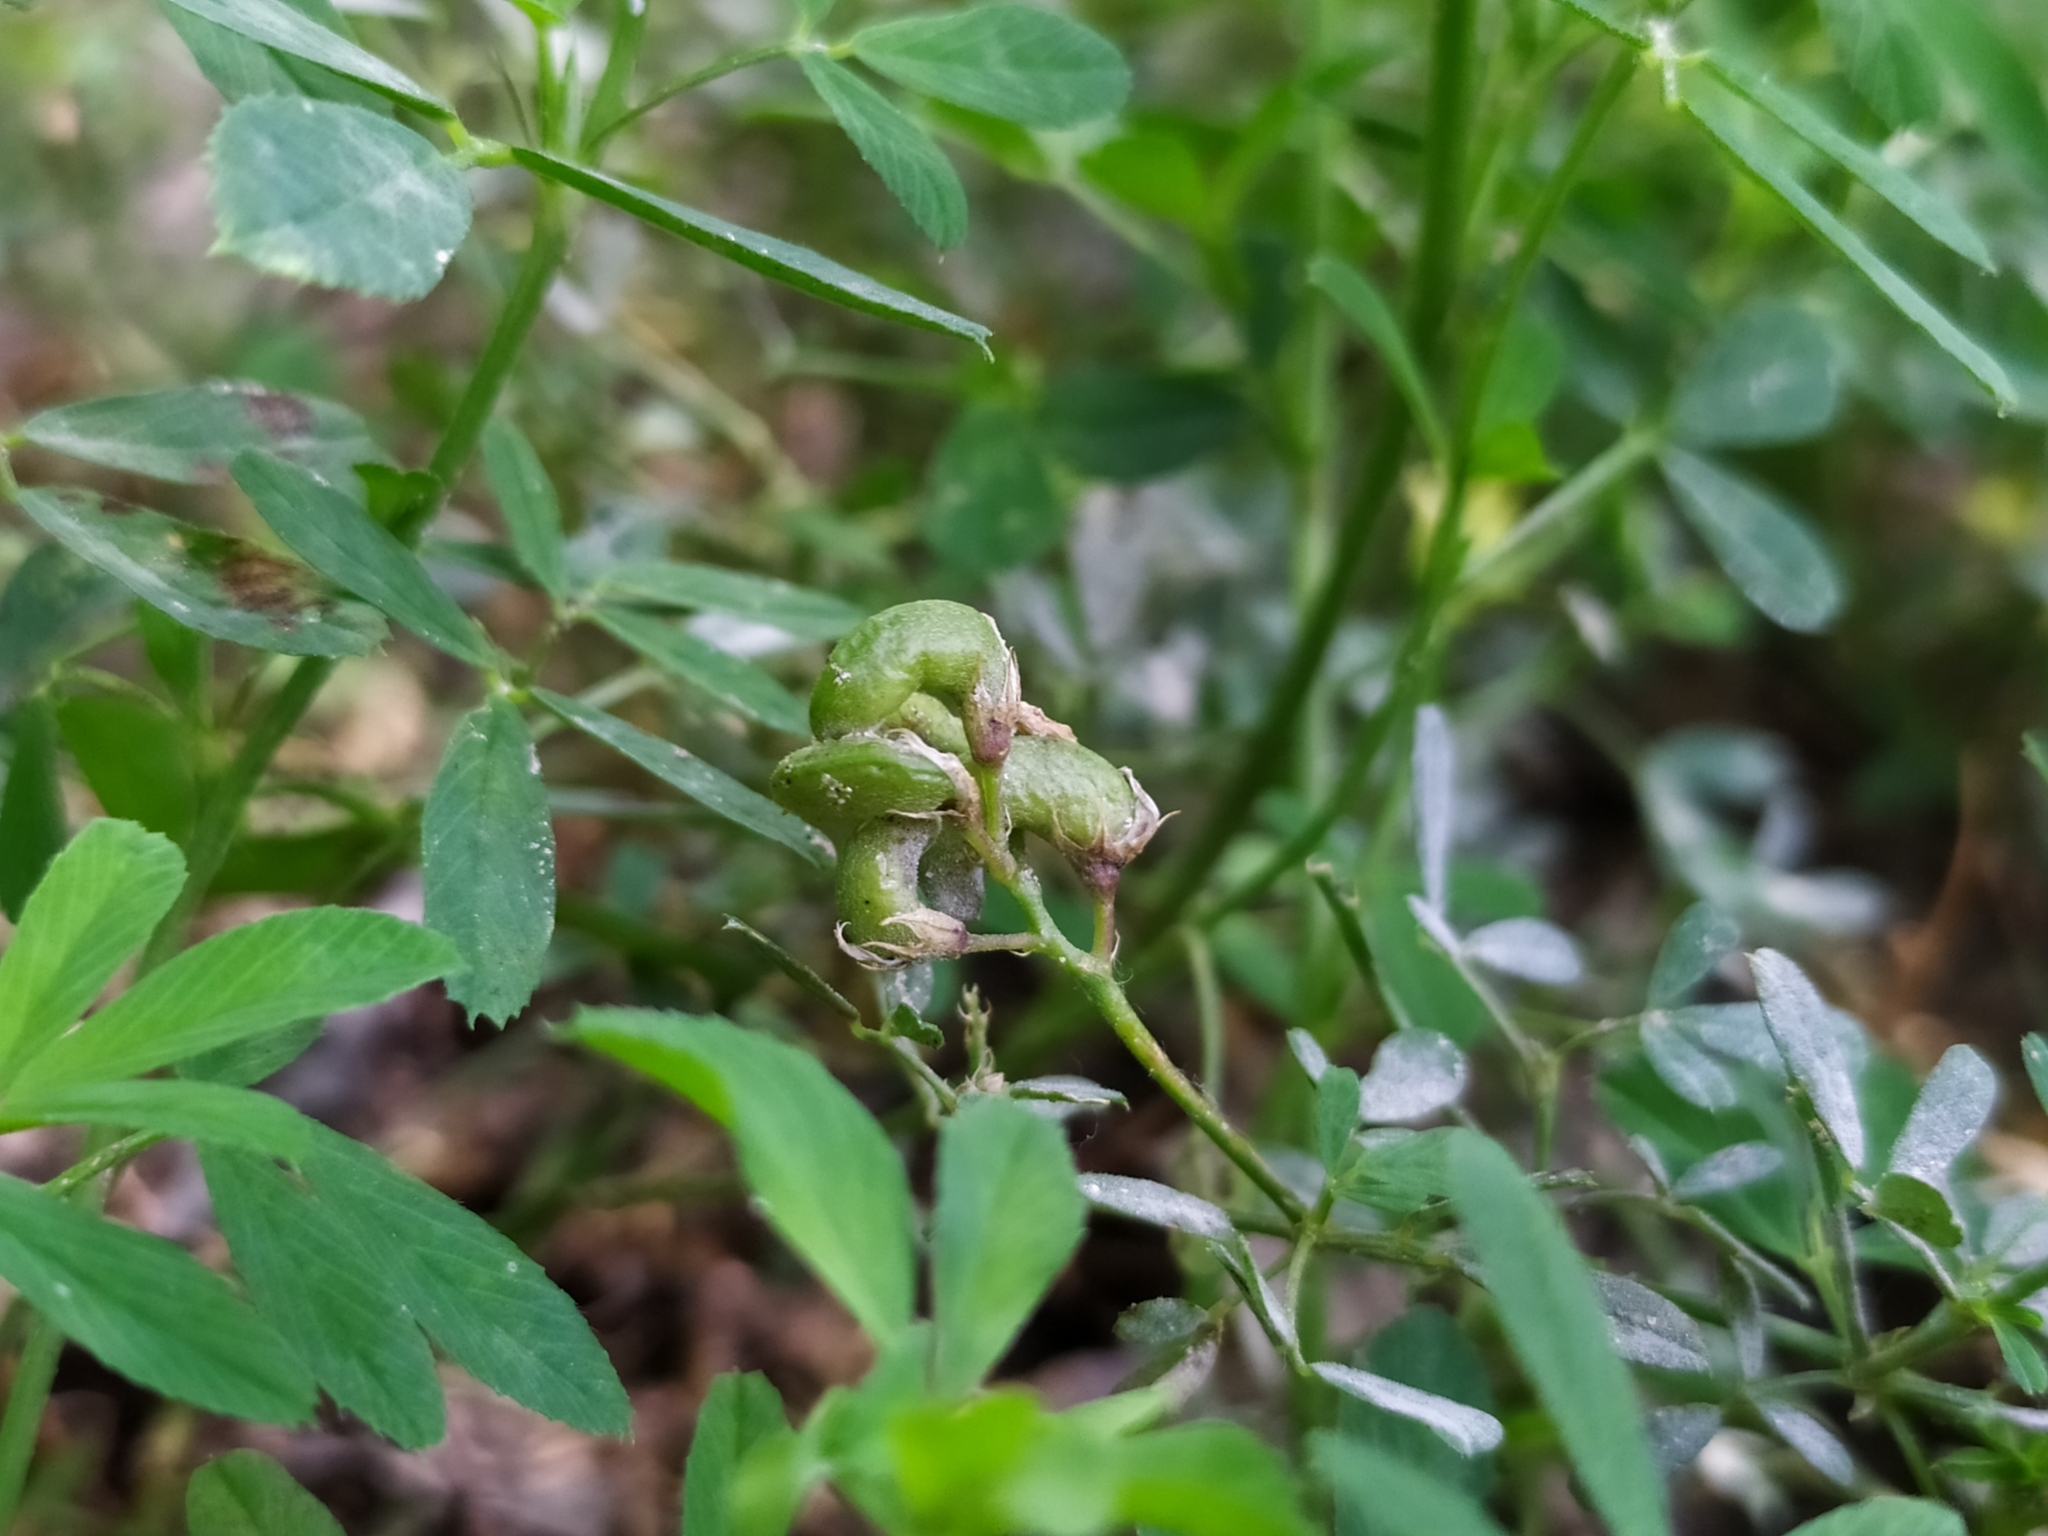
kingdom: Plantae
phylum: Tracheophyta
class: Magnoliopsida
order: Fabales
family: Fabaceae
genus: Medicago
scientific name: Medicago falcata
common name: Sickle medick
